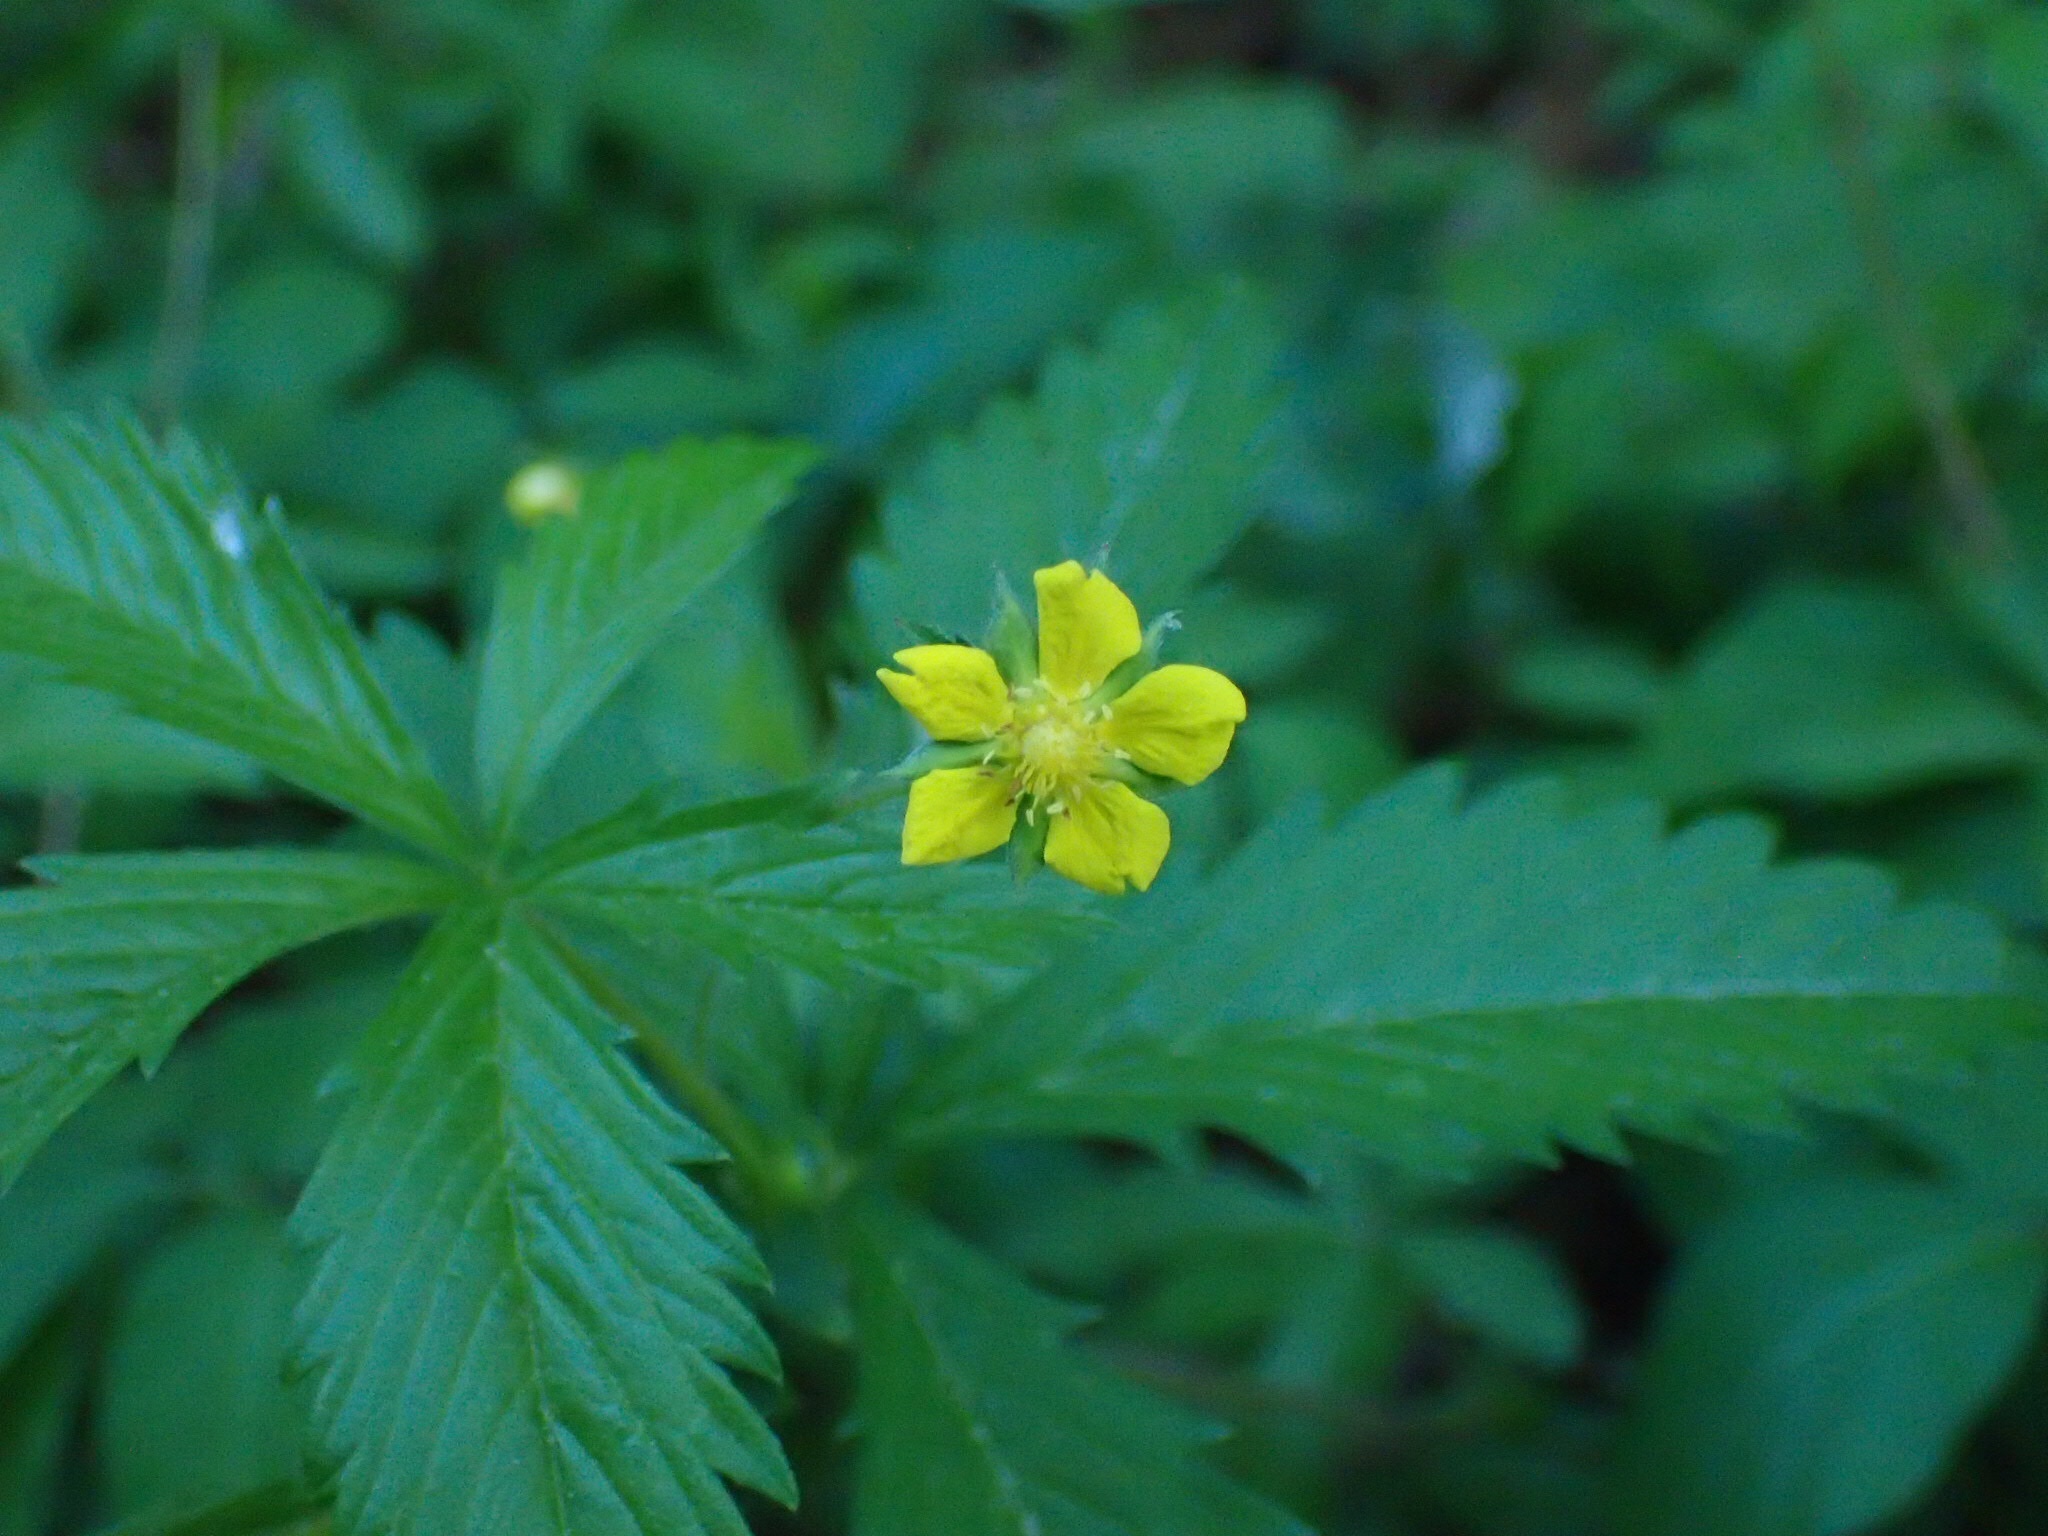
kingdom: Plantae
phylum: Tracheophyta
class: Magnoliopsida
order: Rosales
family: Rosaceae
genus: Potentilla
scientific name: Potentilla simplex
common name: Old field cinquefoil
